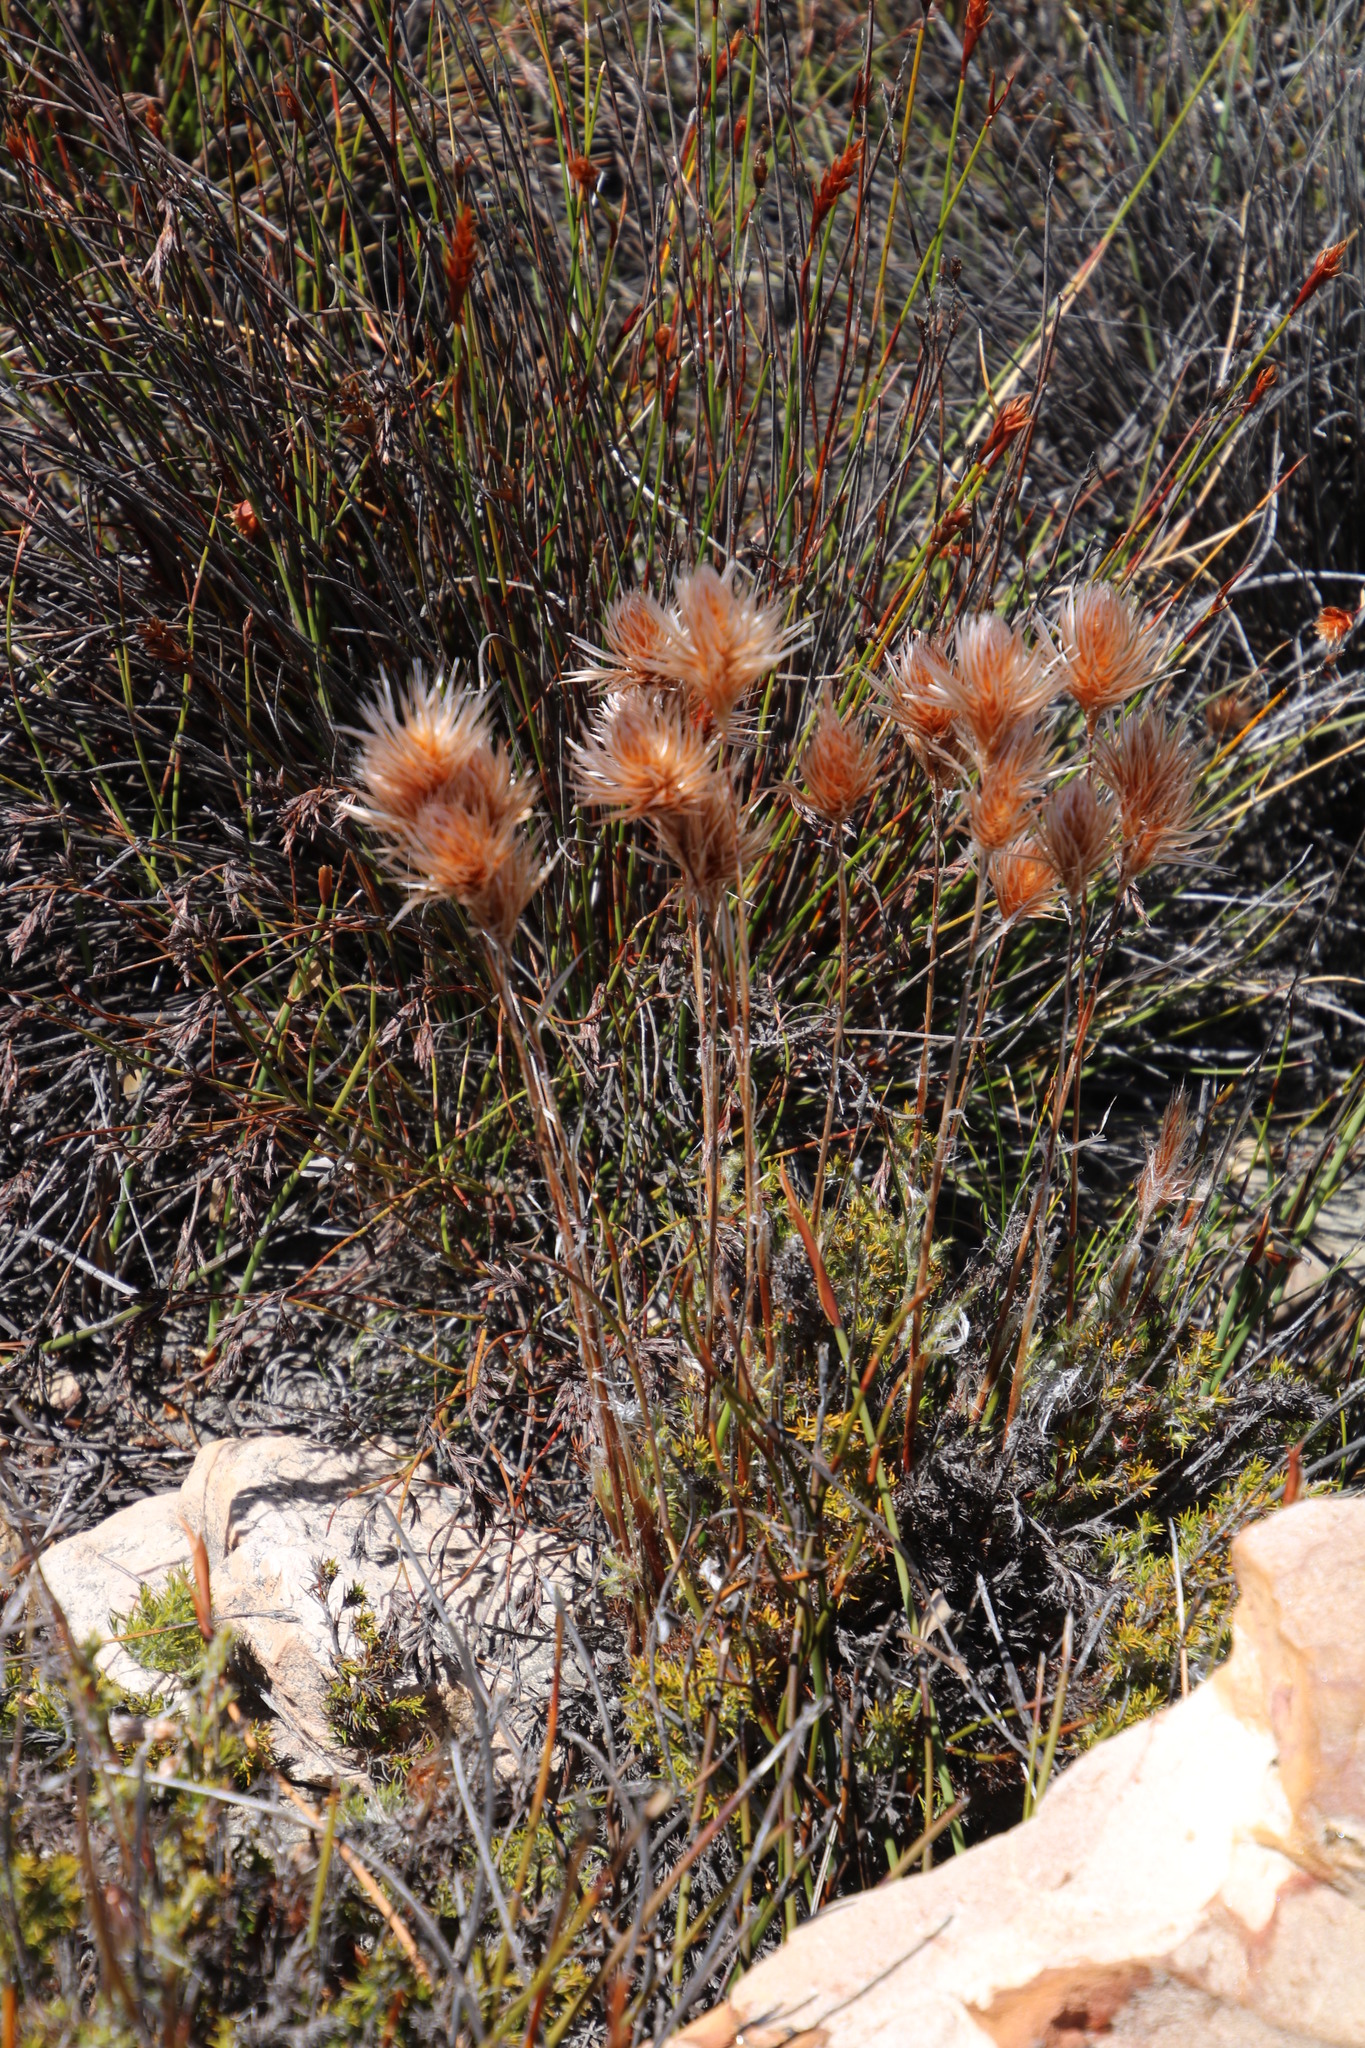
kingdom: Plantae
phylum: Tracheophyta
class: Liliopsida
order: Poales
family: Restionaceae
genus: Thamnochortus
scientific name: Thamnochortus acuminatus
